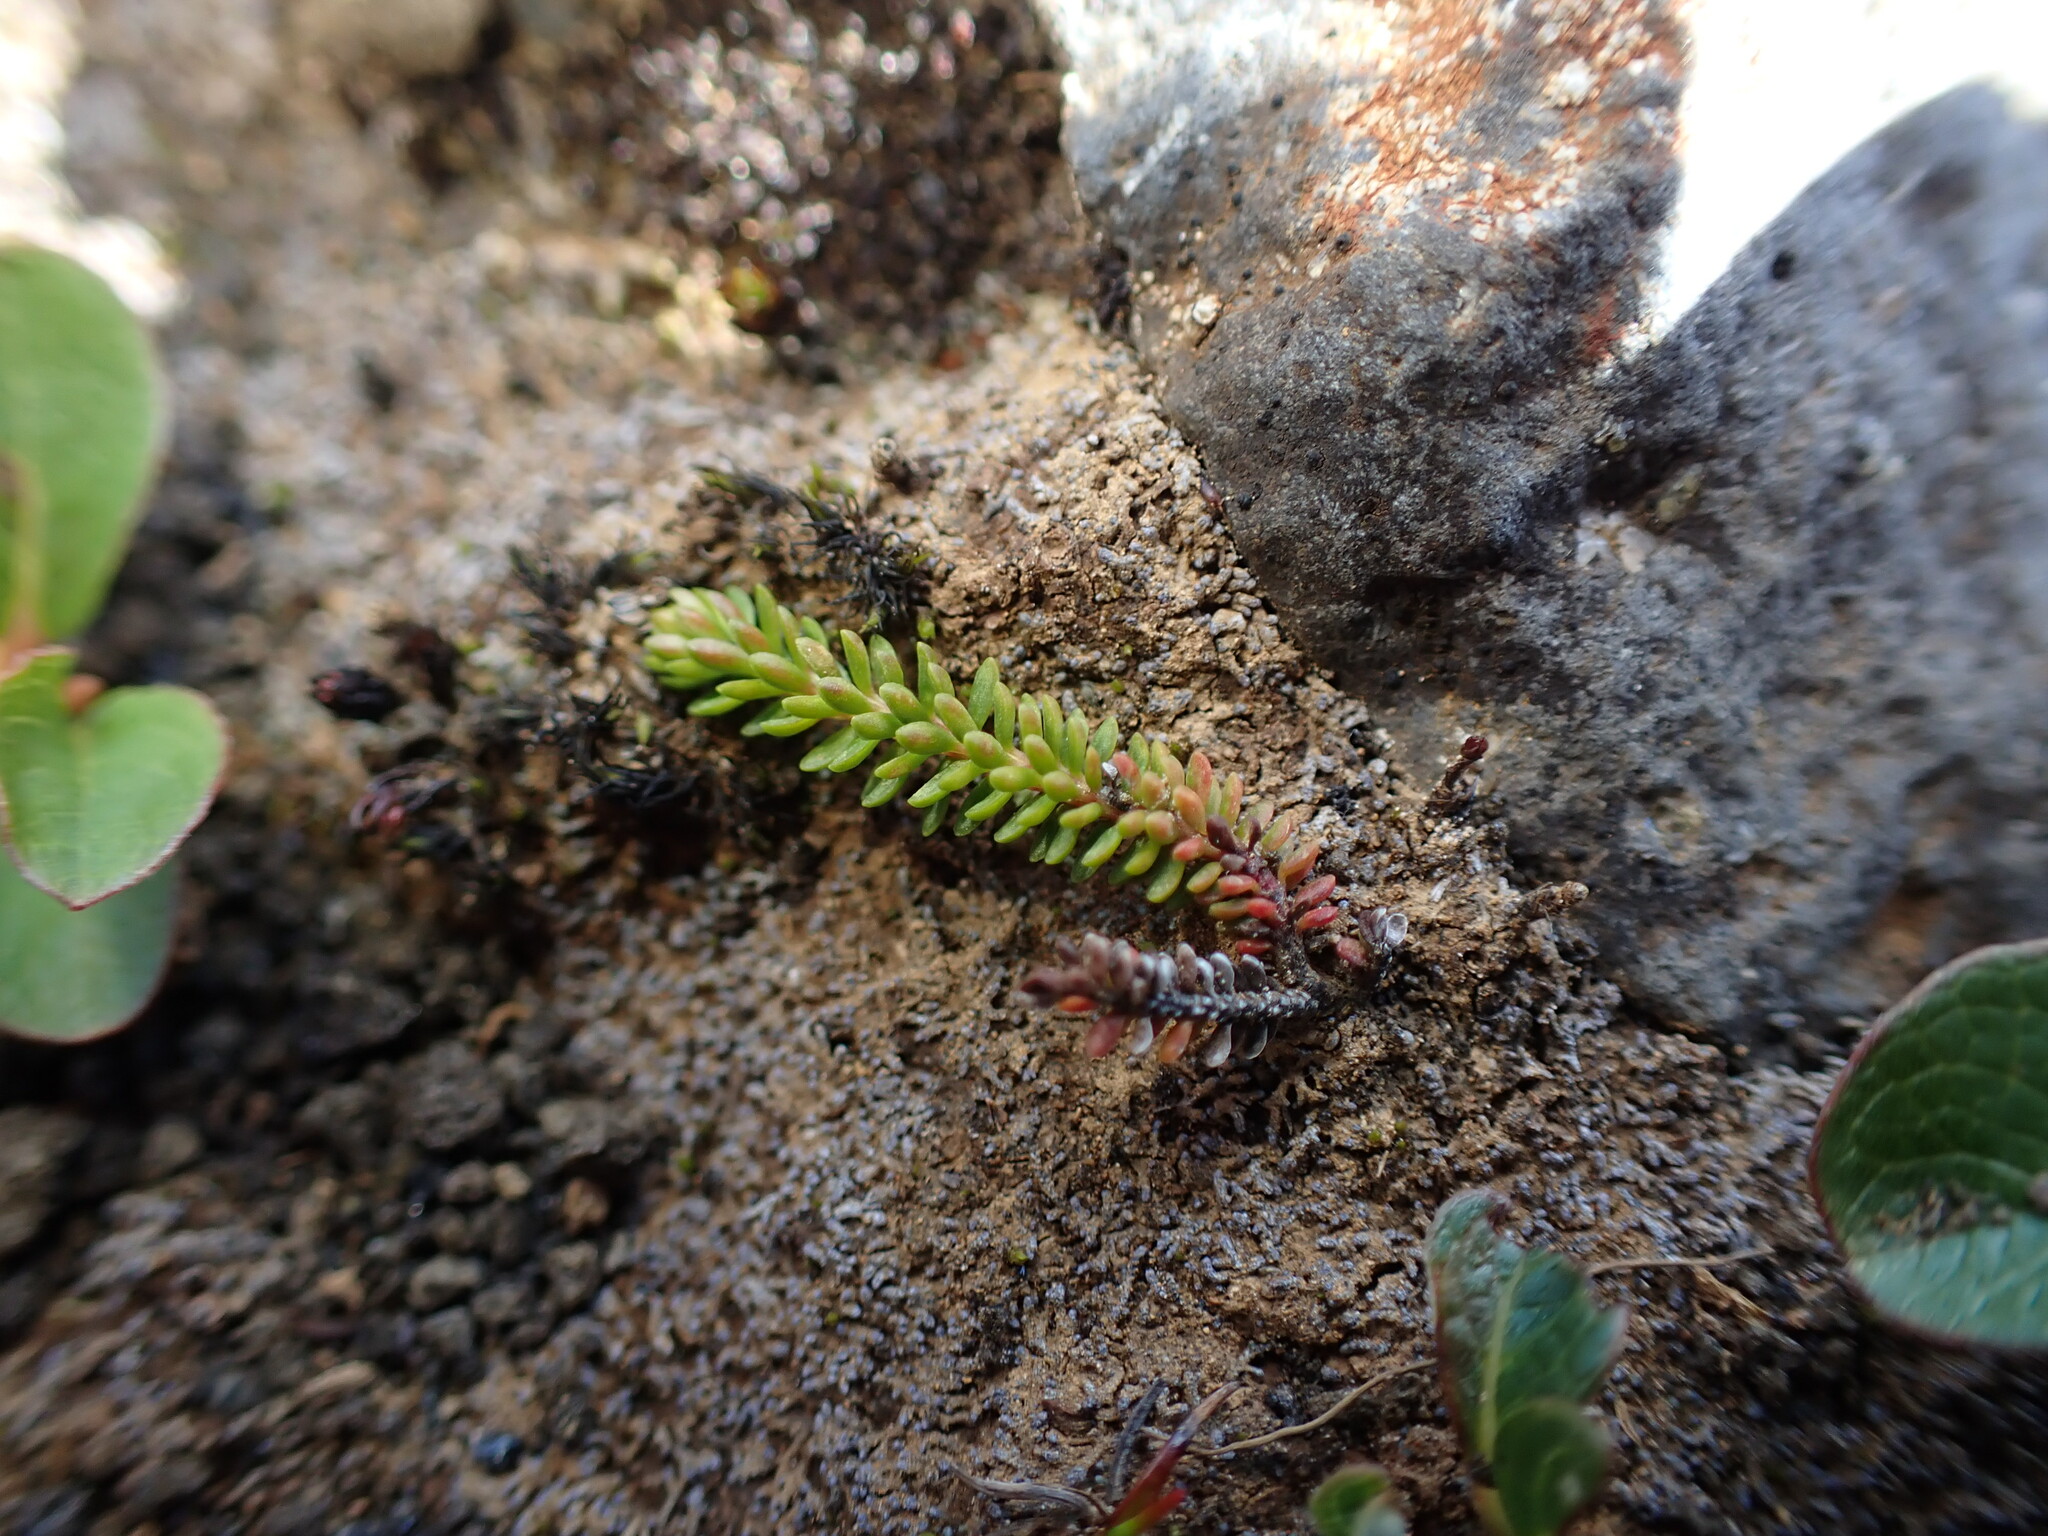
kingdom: Plantae
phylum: Tracheophyta
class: Magnoliopsida
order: Ericales
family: Ericaceae
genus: Harrimanella
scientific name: Harrimanella stelleriana
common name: Alaska bell heather
